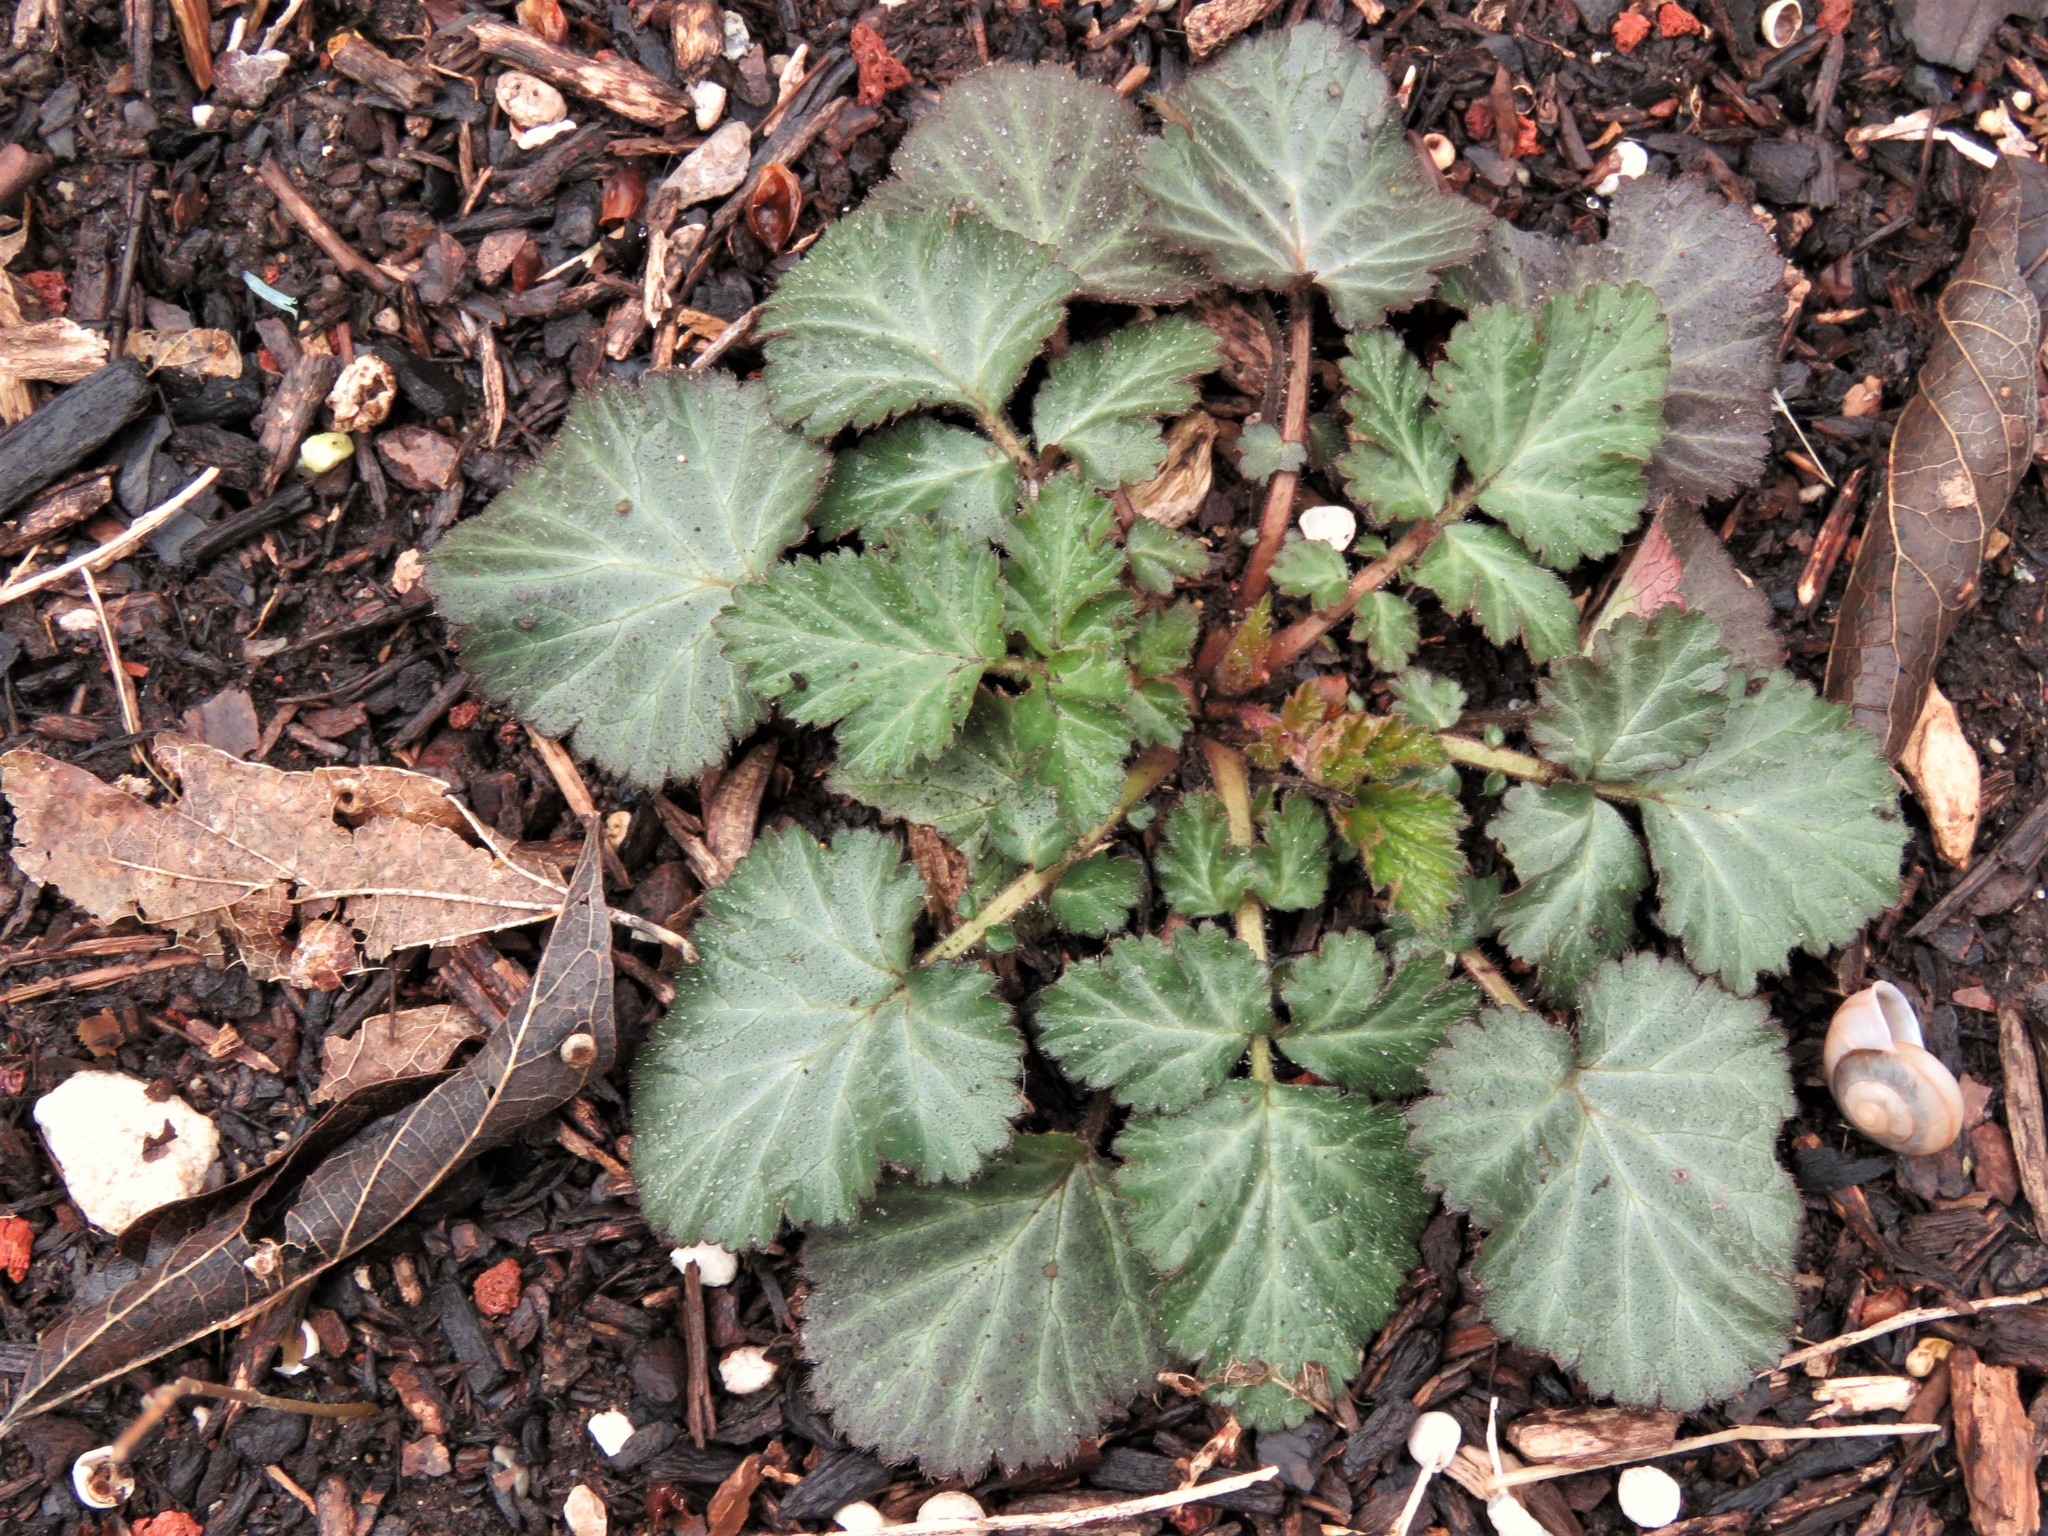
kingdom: Plantae
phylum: Tracheophyta
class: Magnoliopsida
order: Rosales
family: Rosaceae
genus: Geum
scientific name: Geum canadense
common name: White avens
